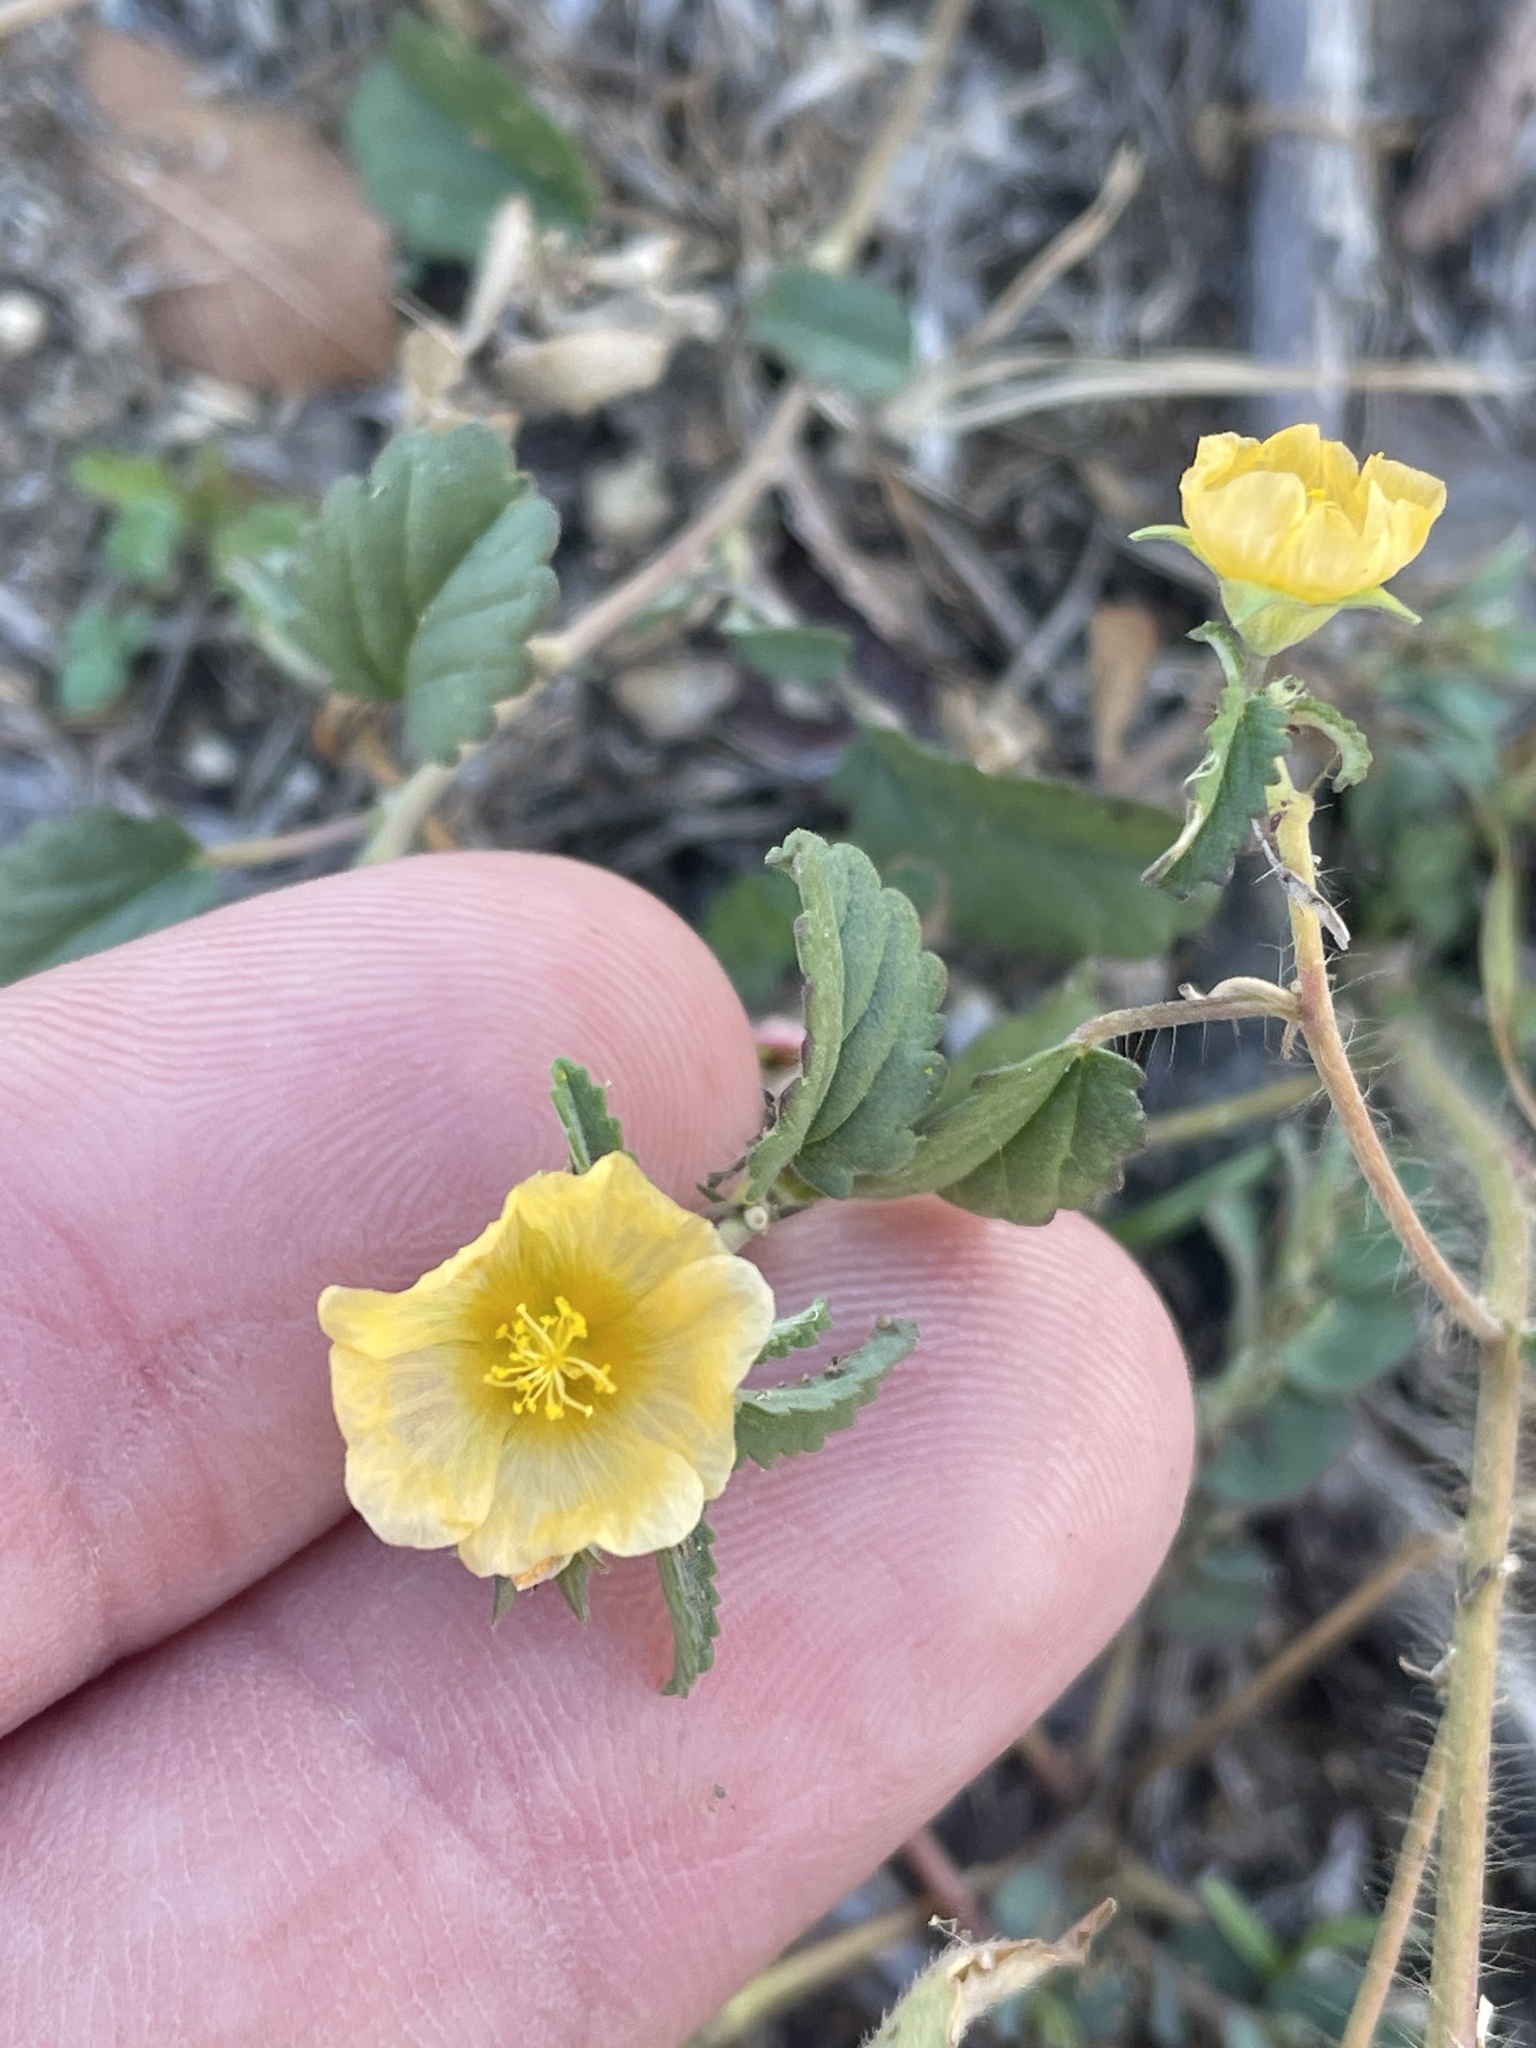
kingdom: Plantae
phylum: Tracheophyta
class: Magnoliopsida
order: Malvales
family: Malvaceae
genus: Sida
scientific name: Sida abutilifolia
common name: Spreading fanpetals
